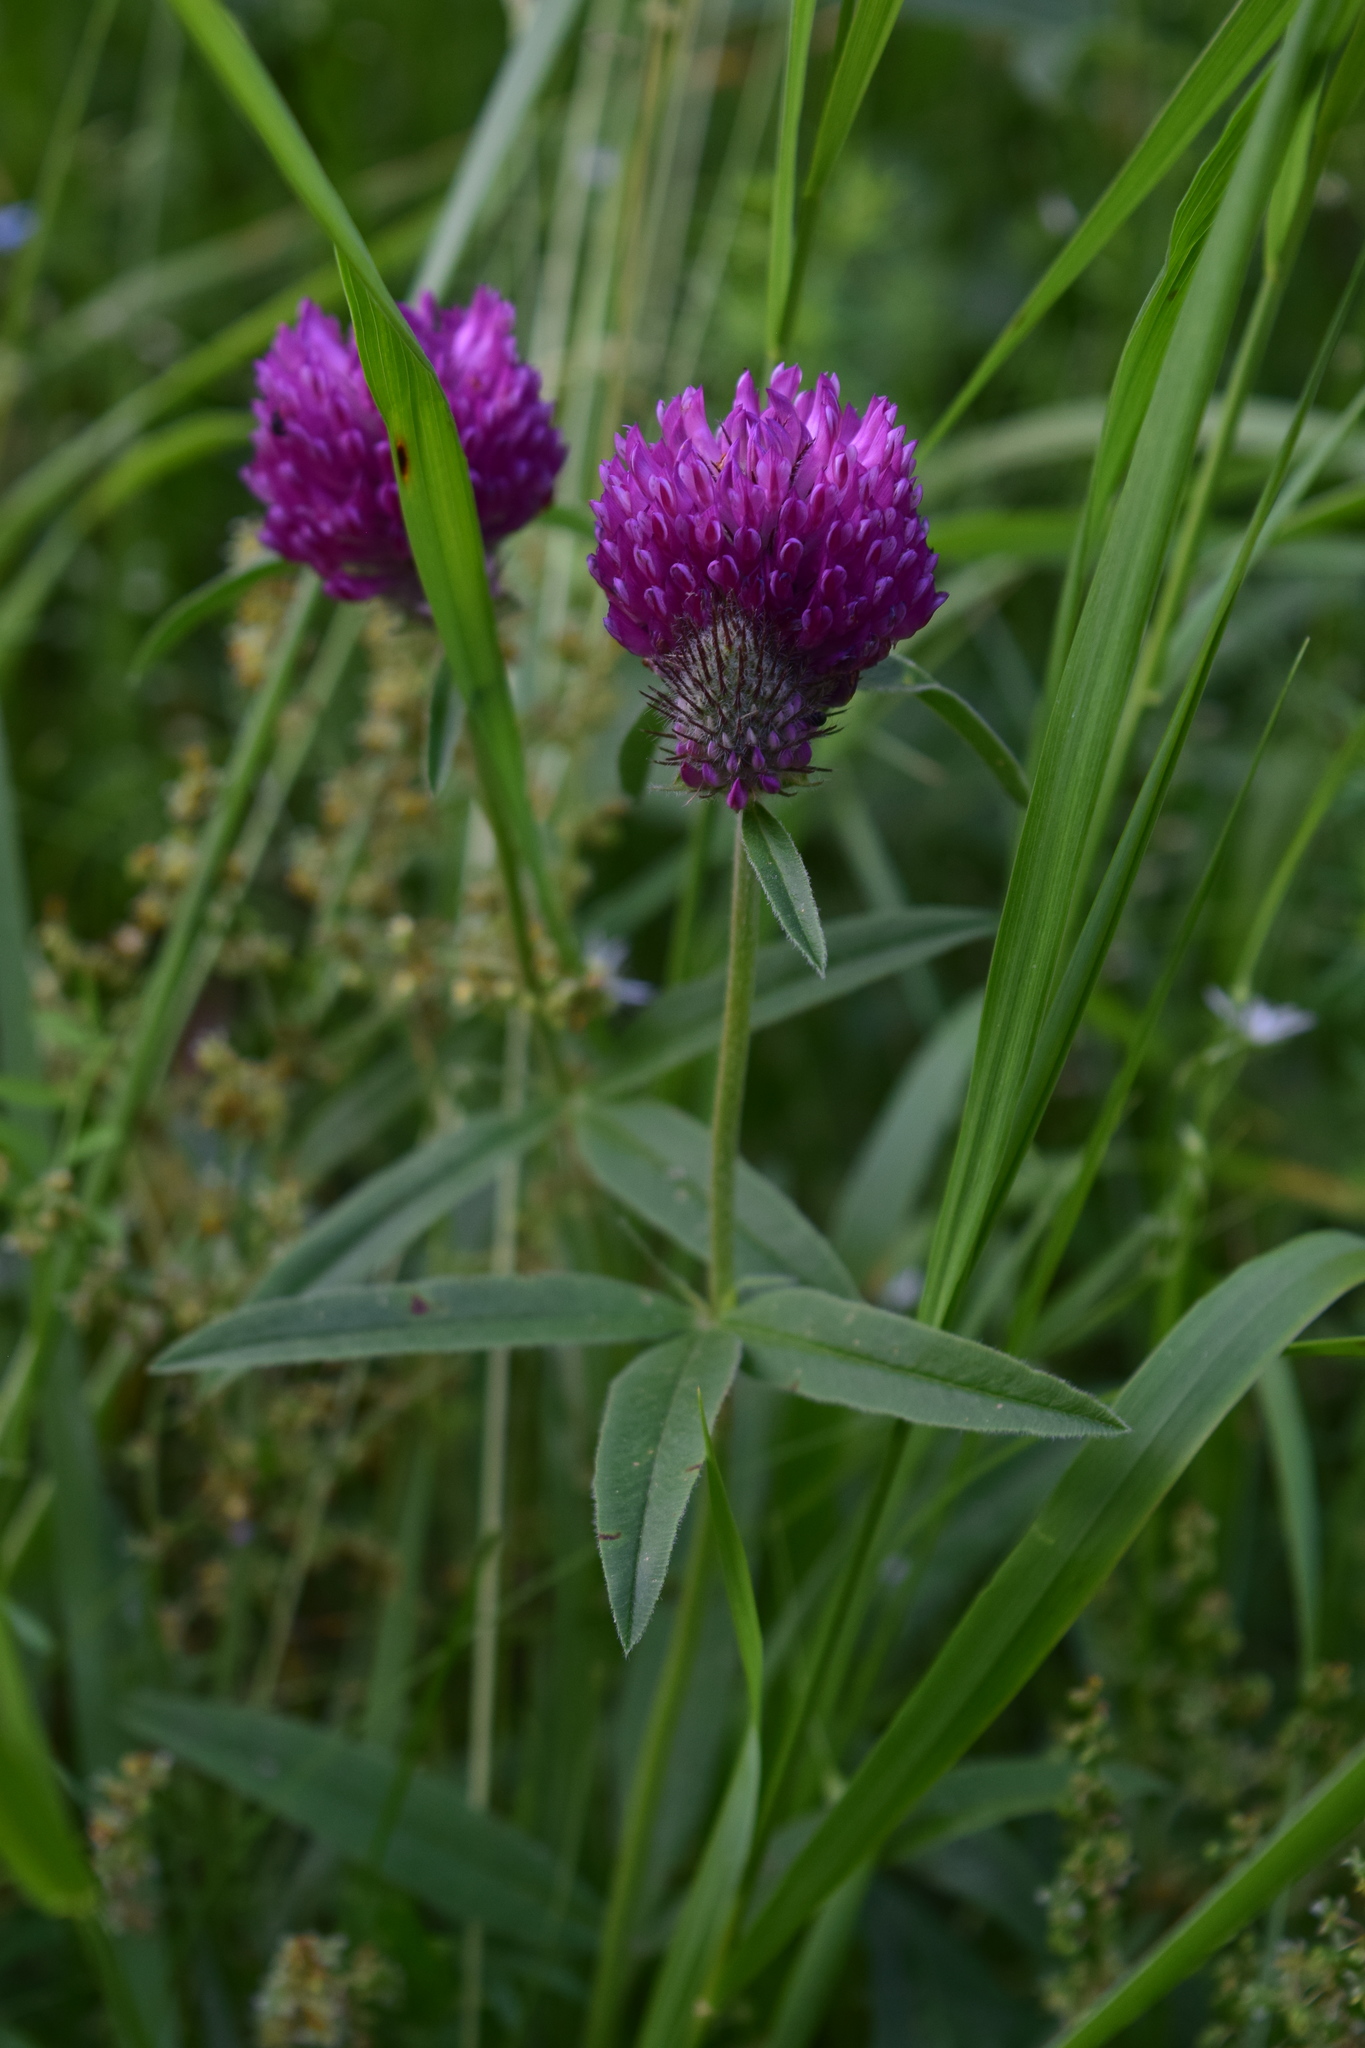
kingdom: Plantae
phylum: Tracheophyta
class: Magnoliopsida
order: Fabales
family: Fabaceae
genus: Trifolium
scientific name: Trifolium alpestre
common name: Owl-head clover
